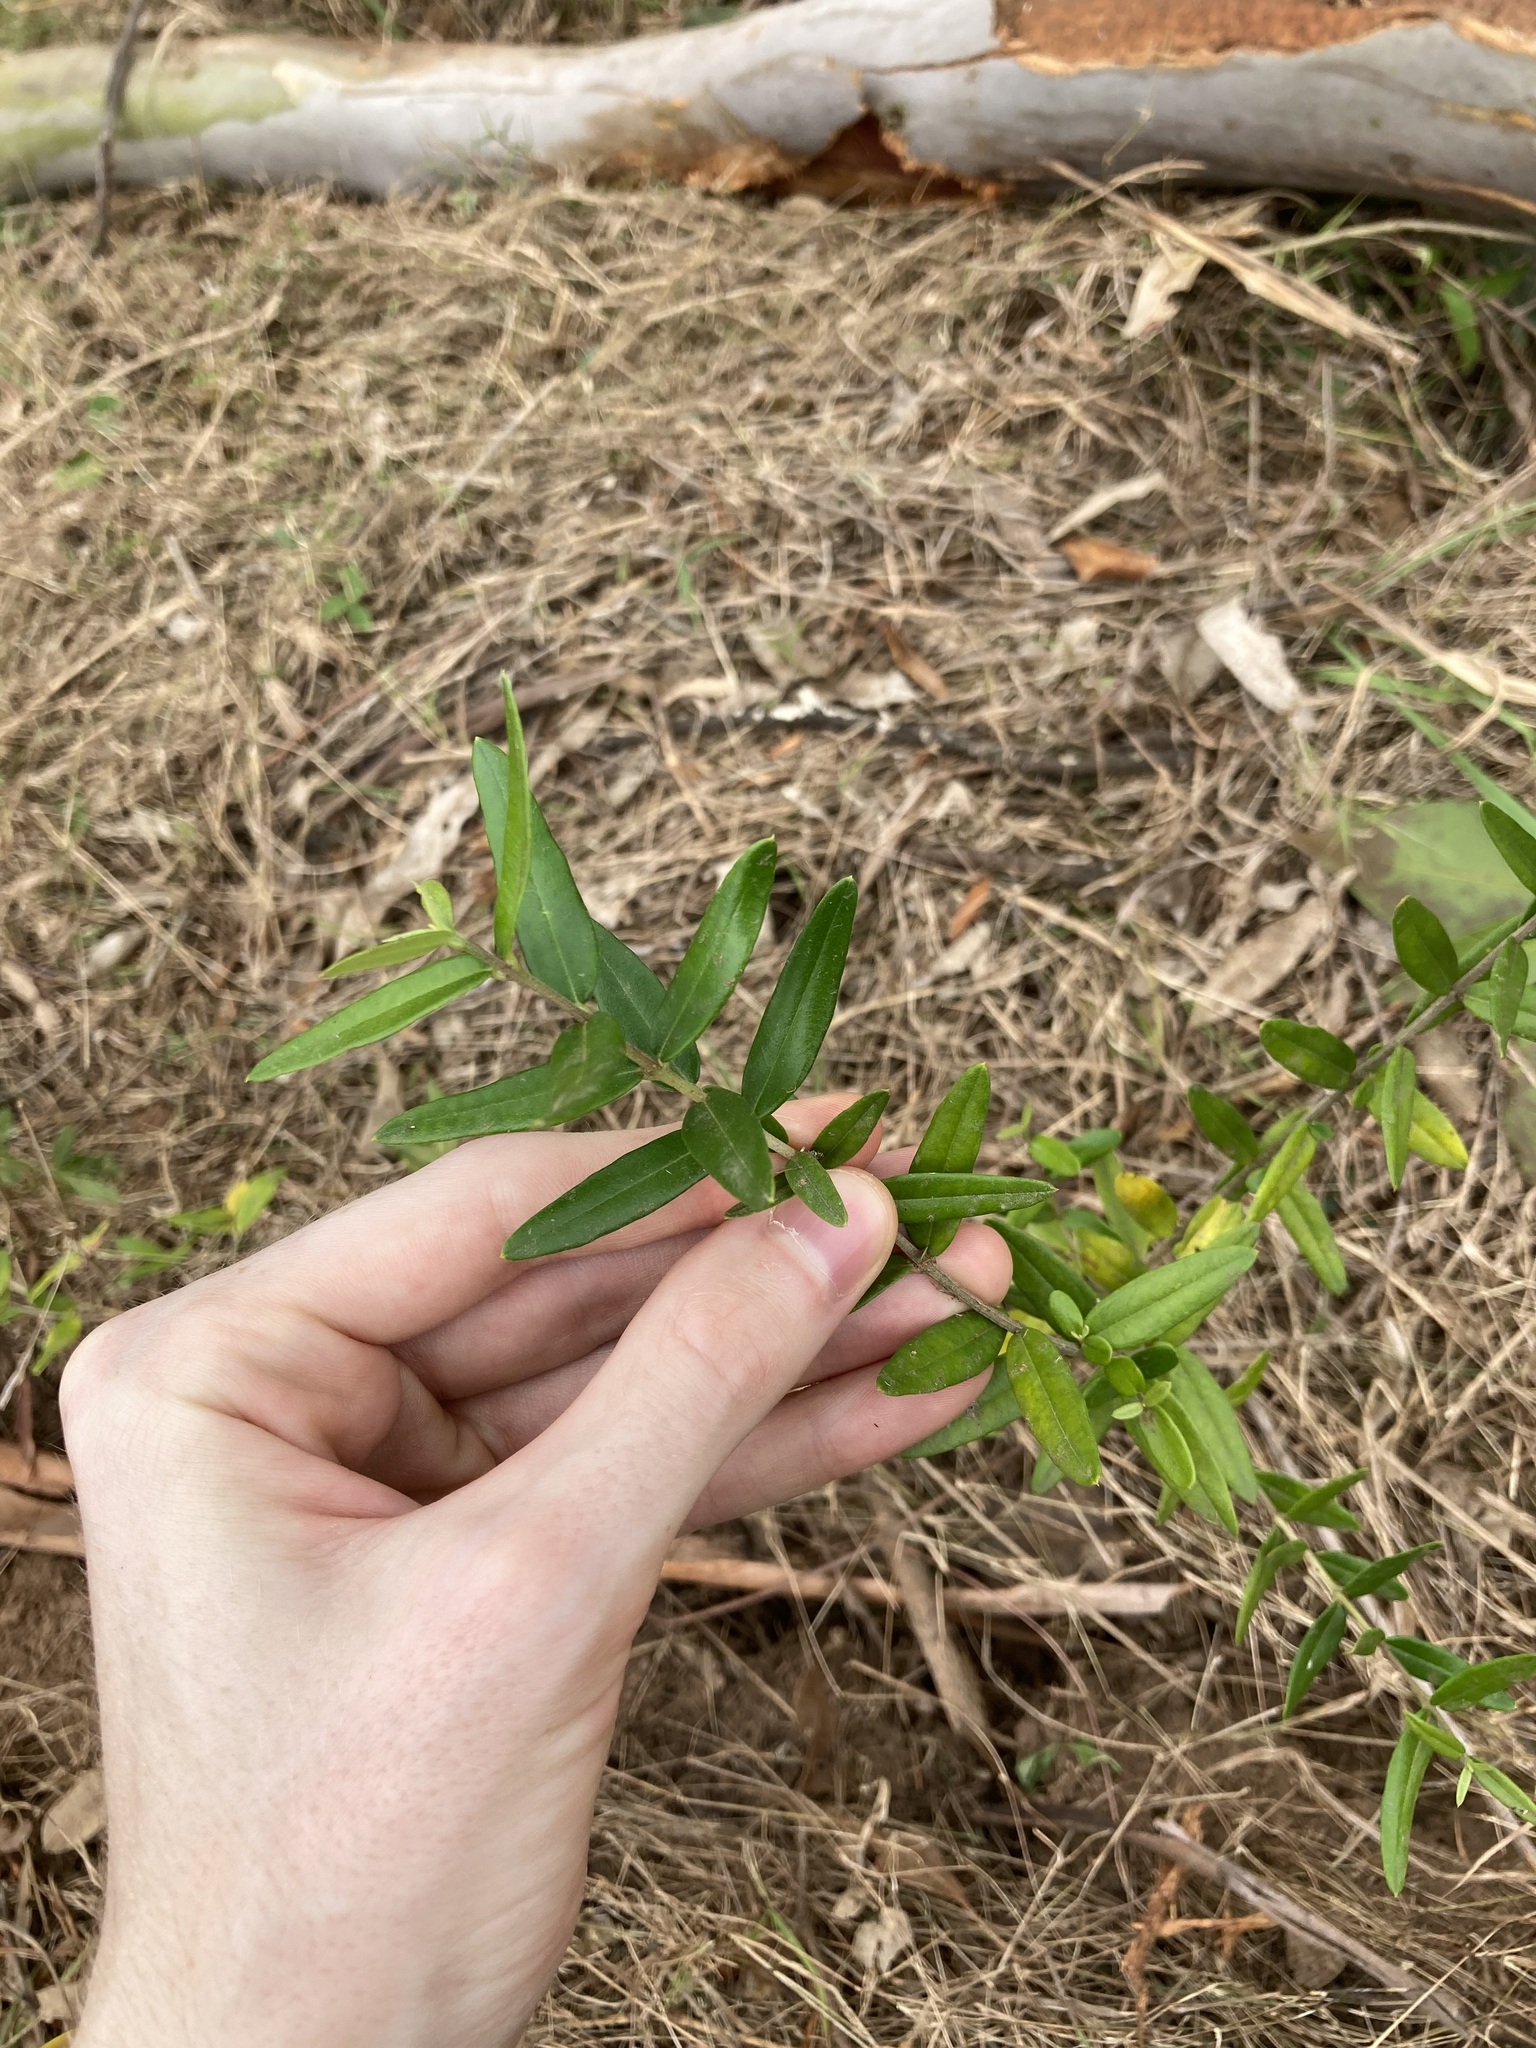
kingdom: Plantae
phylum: Tracheophyta
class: Magnoliopsida
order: Lamiales
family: Oleaceae
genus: Olea
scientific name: Olea europaea
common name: Olive
